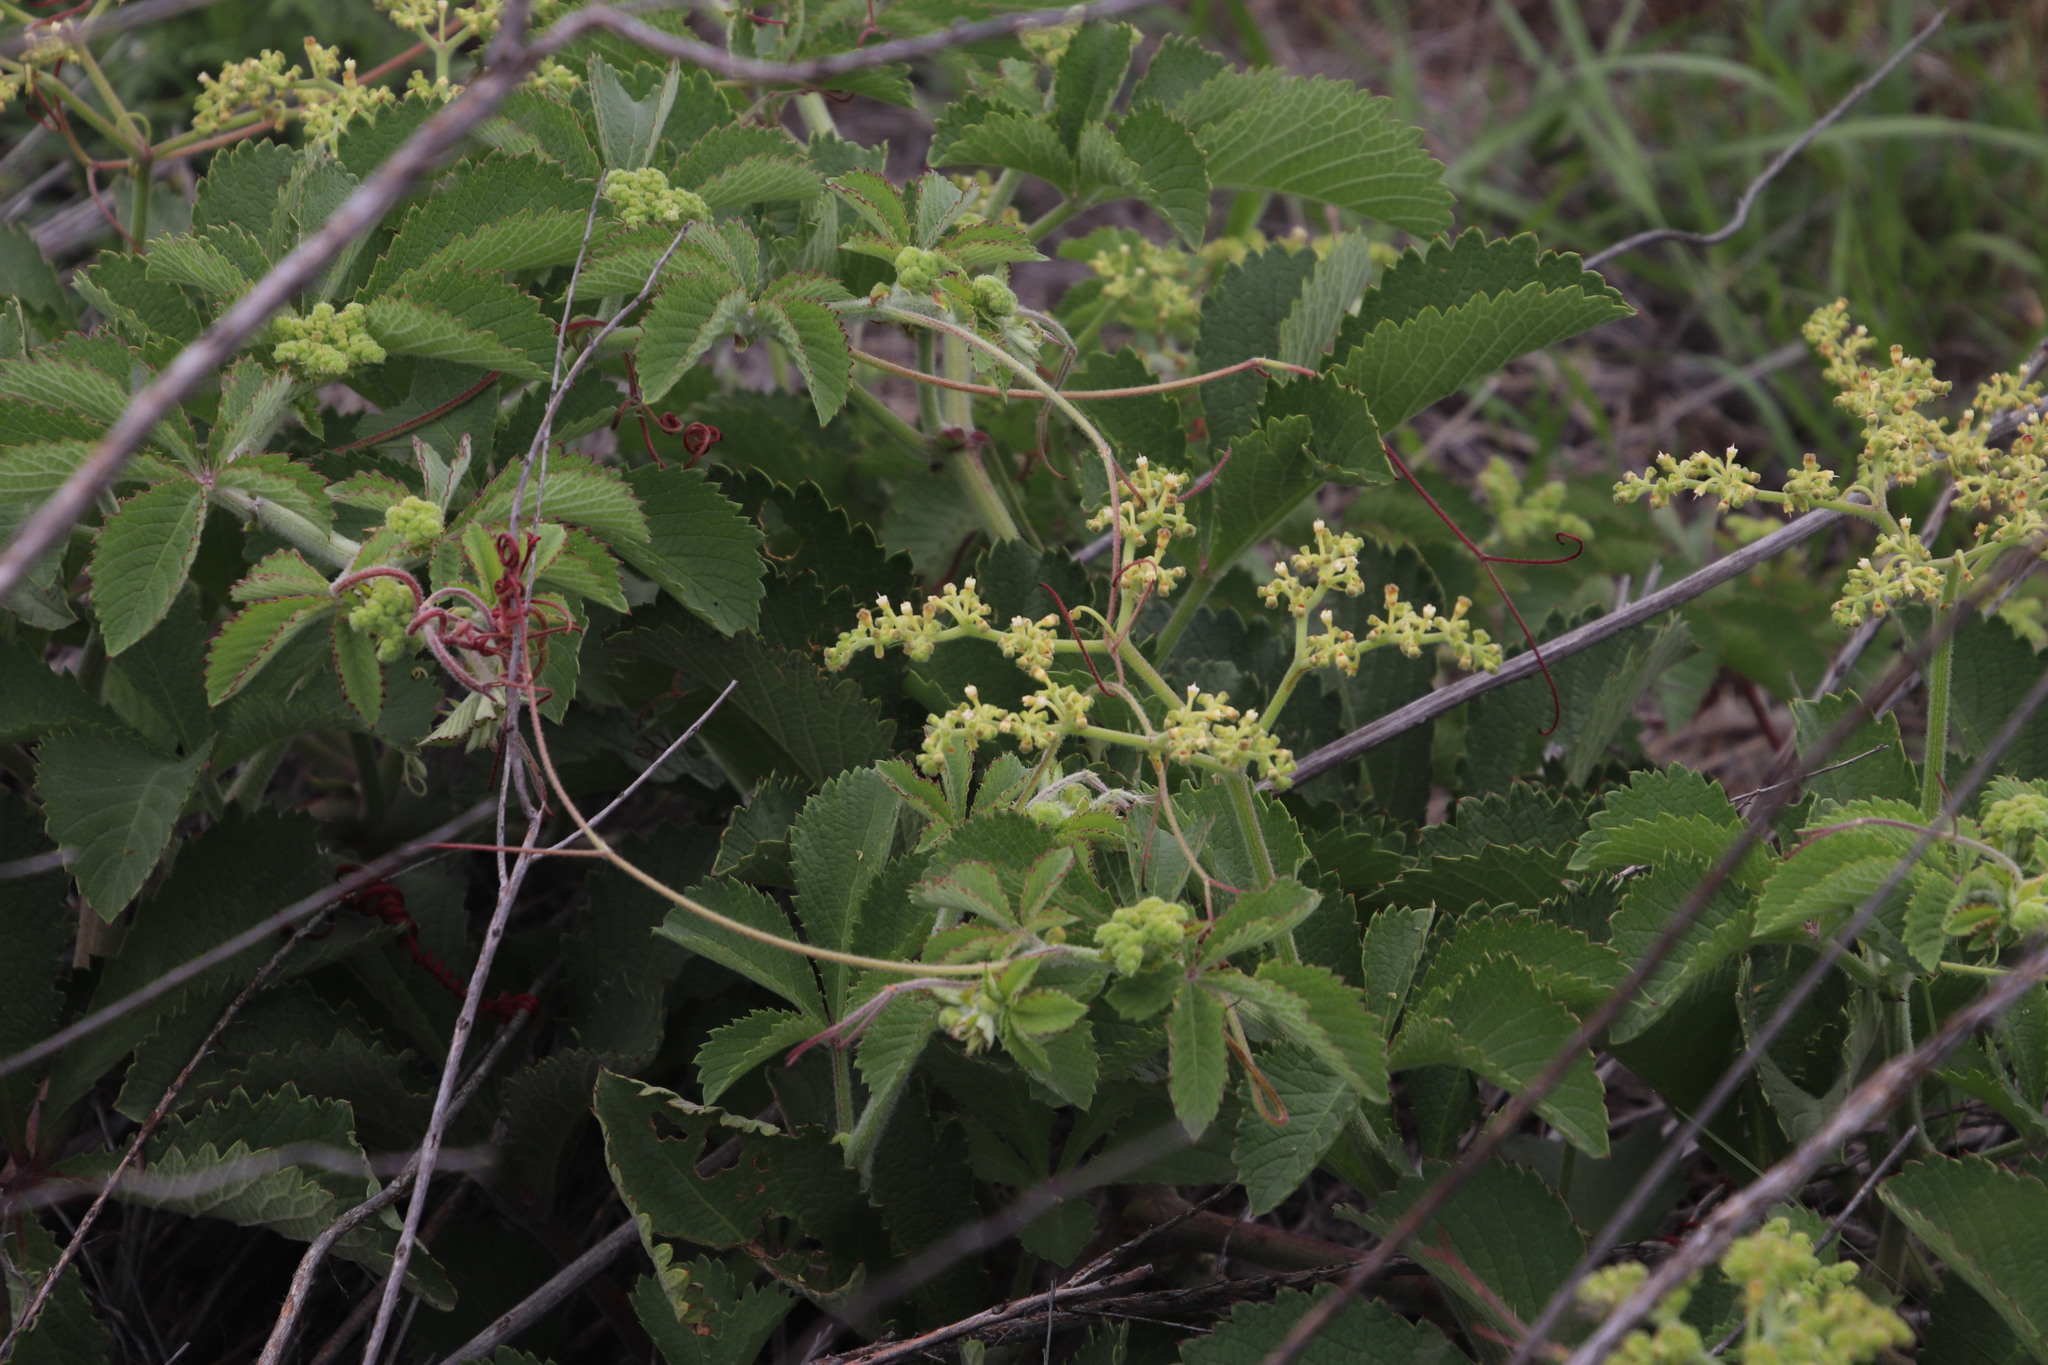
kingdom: Plantae
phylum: Tracheophyta
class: Magnoliopsida
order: Vitales
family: Vitaceae
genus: Cyphostemma
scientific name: Cyphostemma lanigerum
